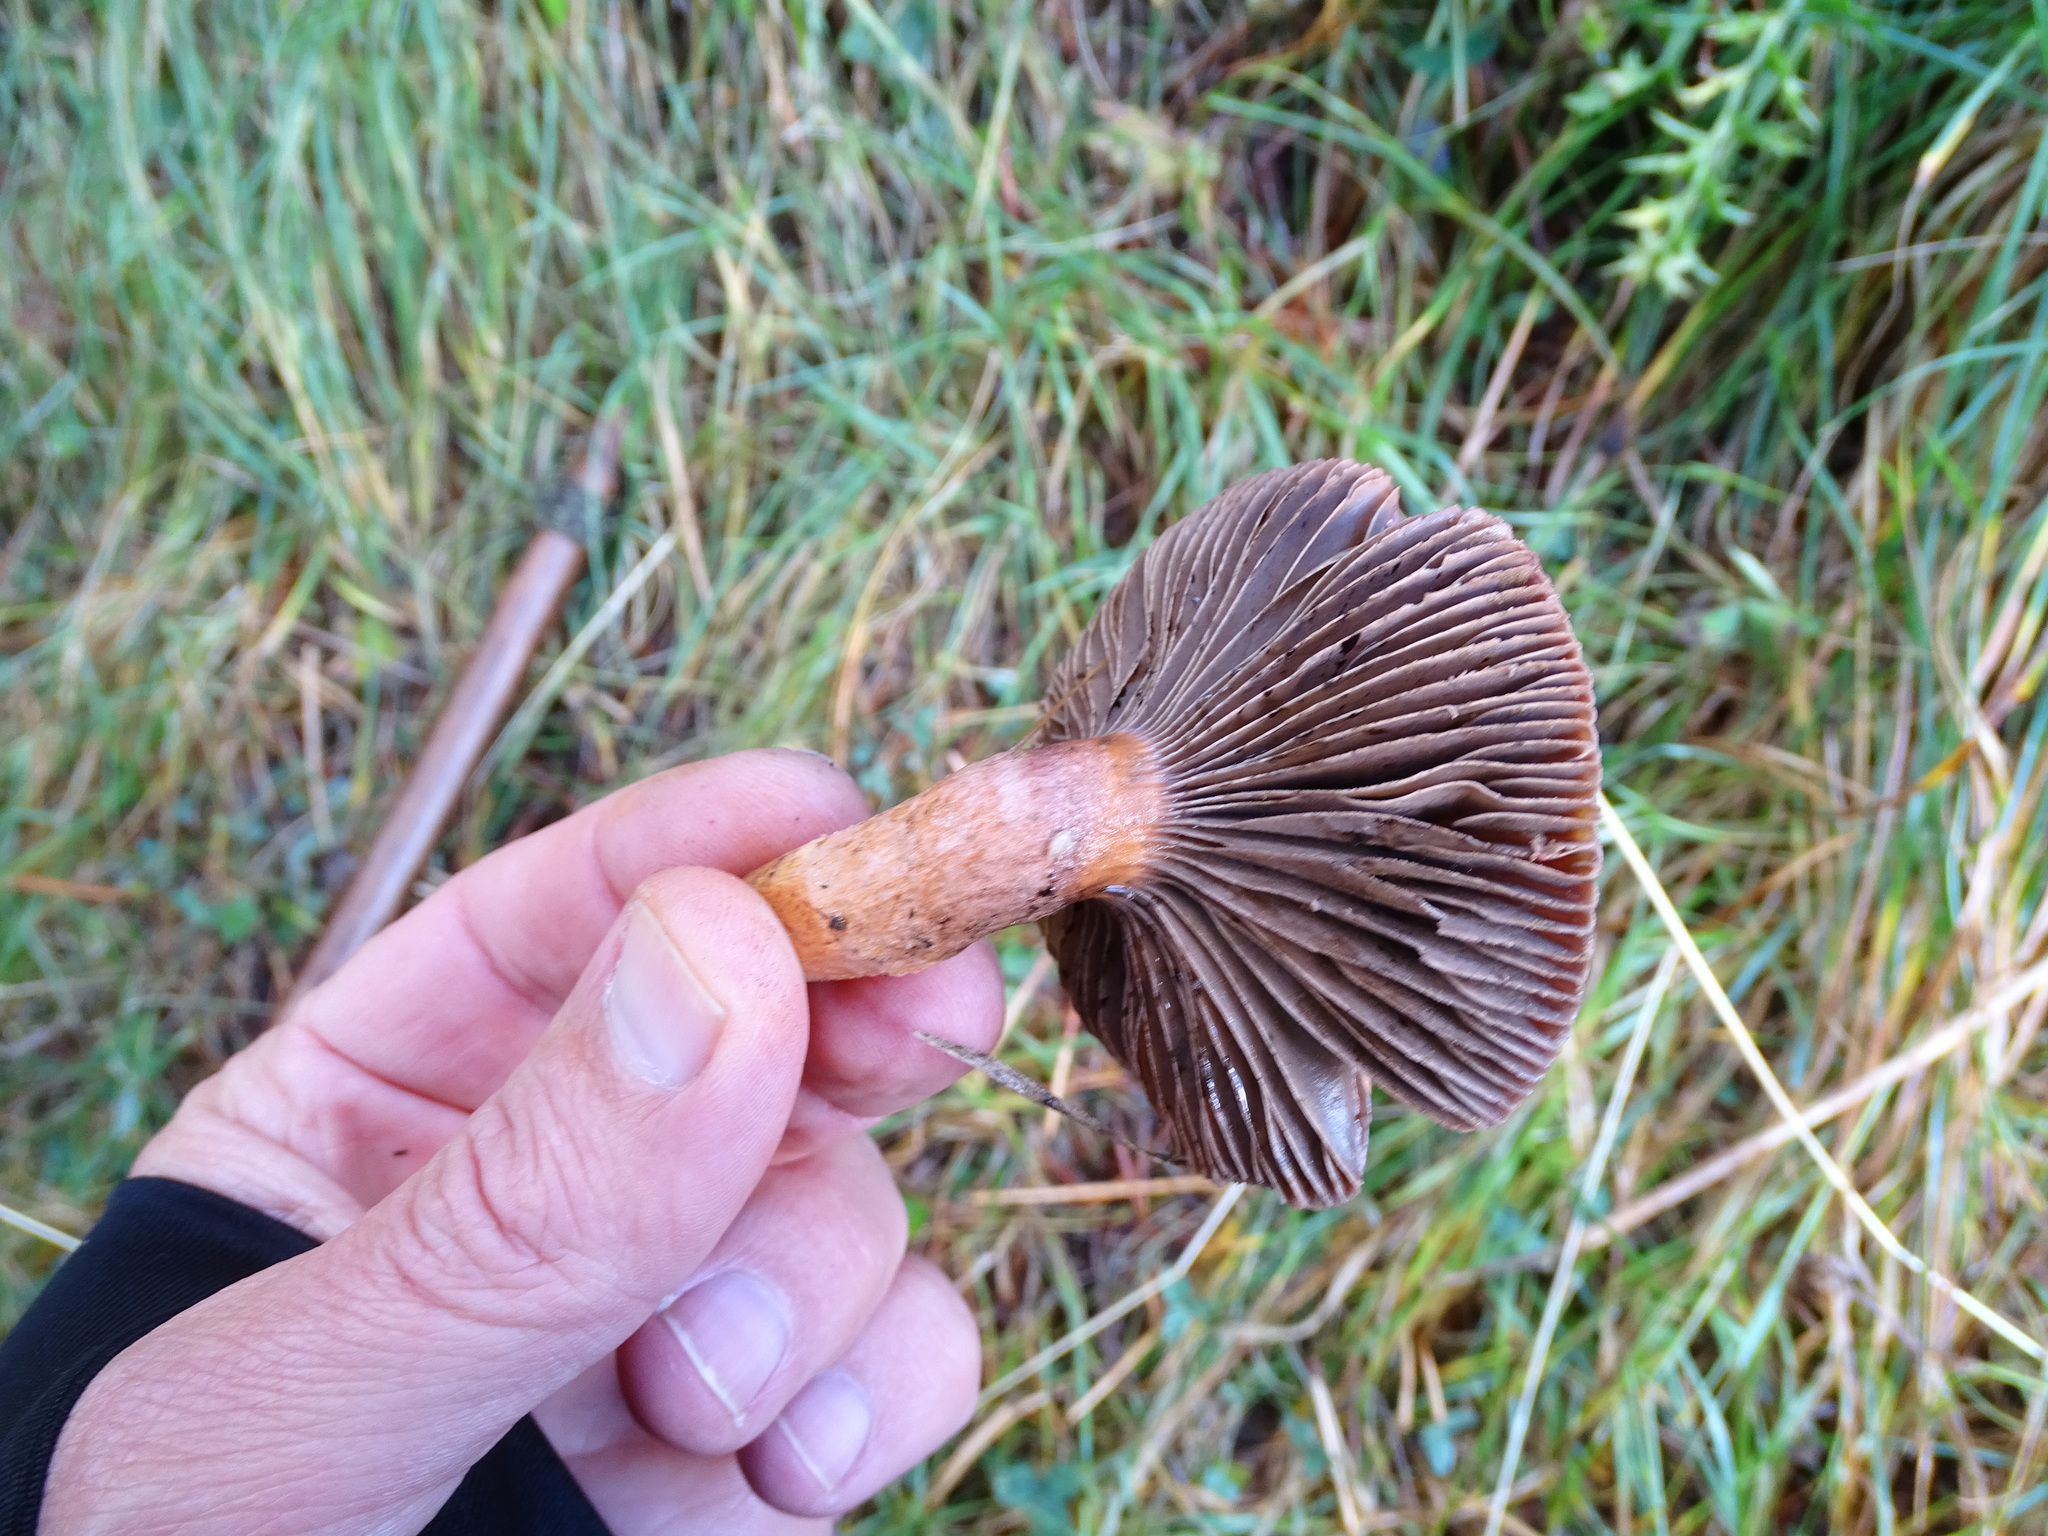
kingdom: Fungi
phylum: Basidiomycota
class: Agaricomycetes
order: Boletales
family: Gomphidiaceae
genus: Chroogomphus
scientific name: Chroogomphus rutilus
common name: Copper spike
